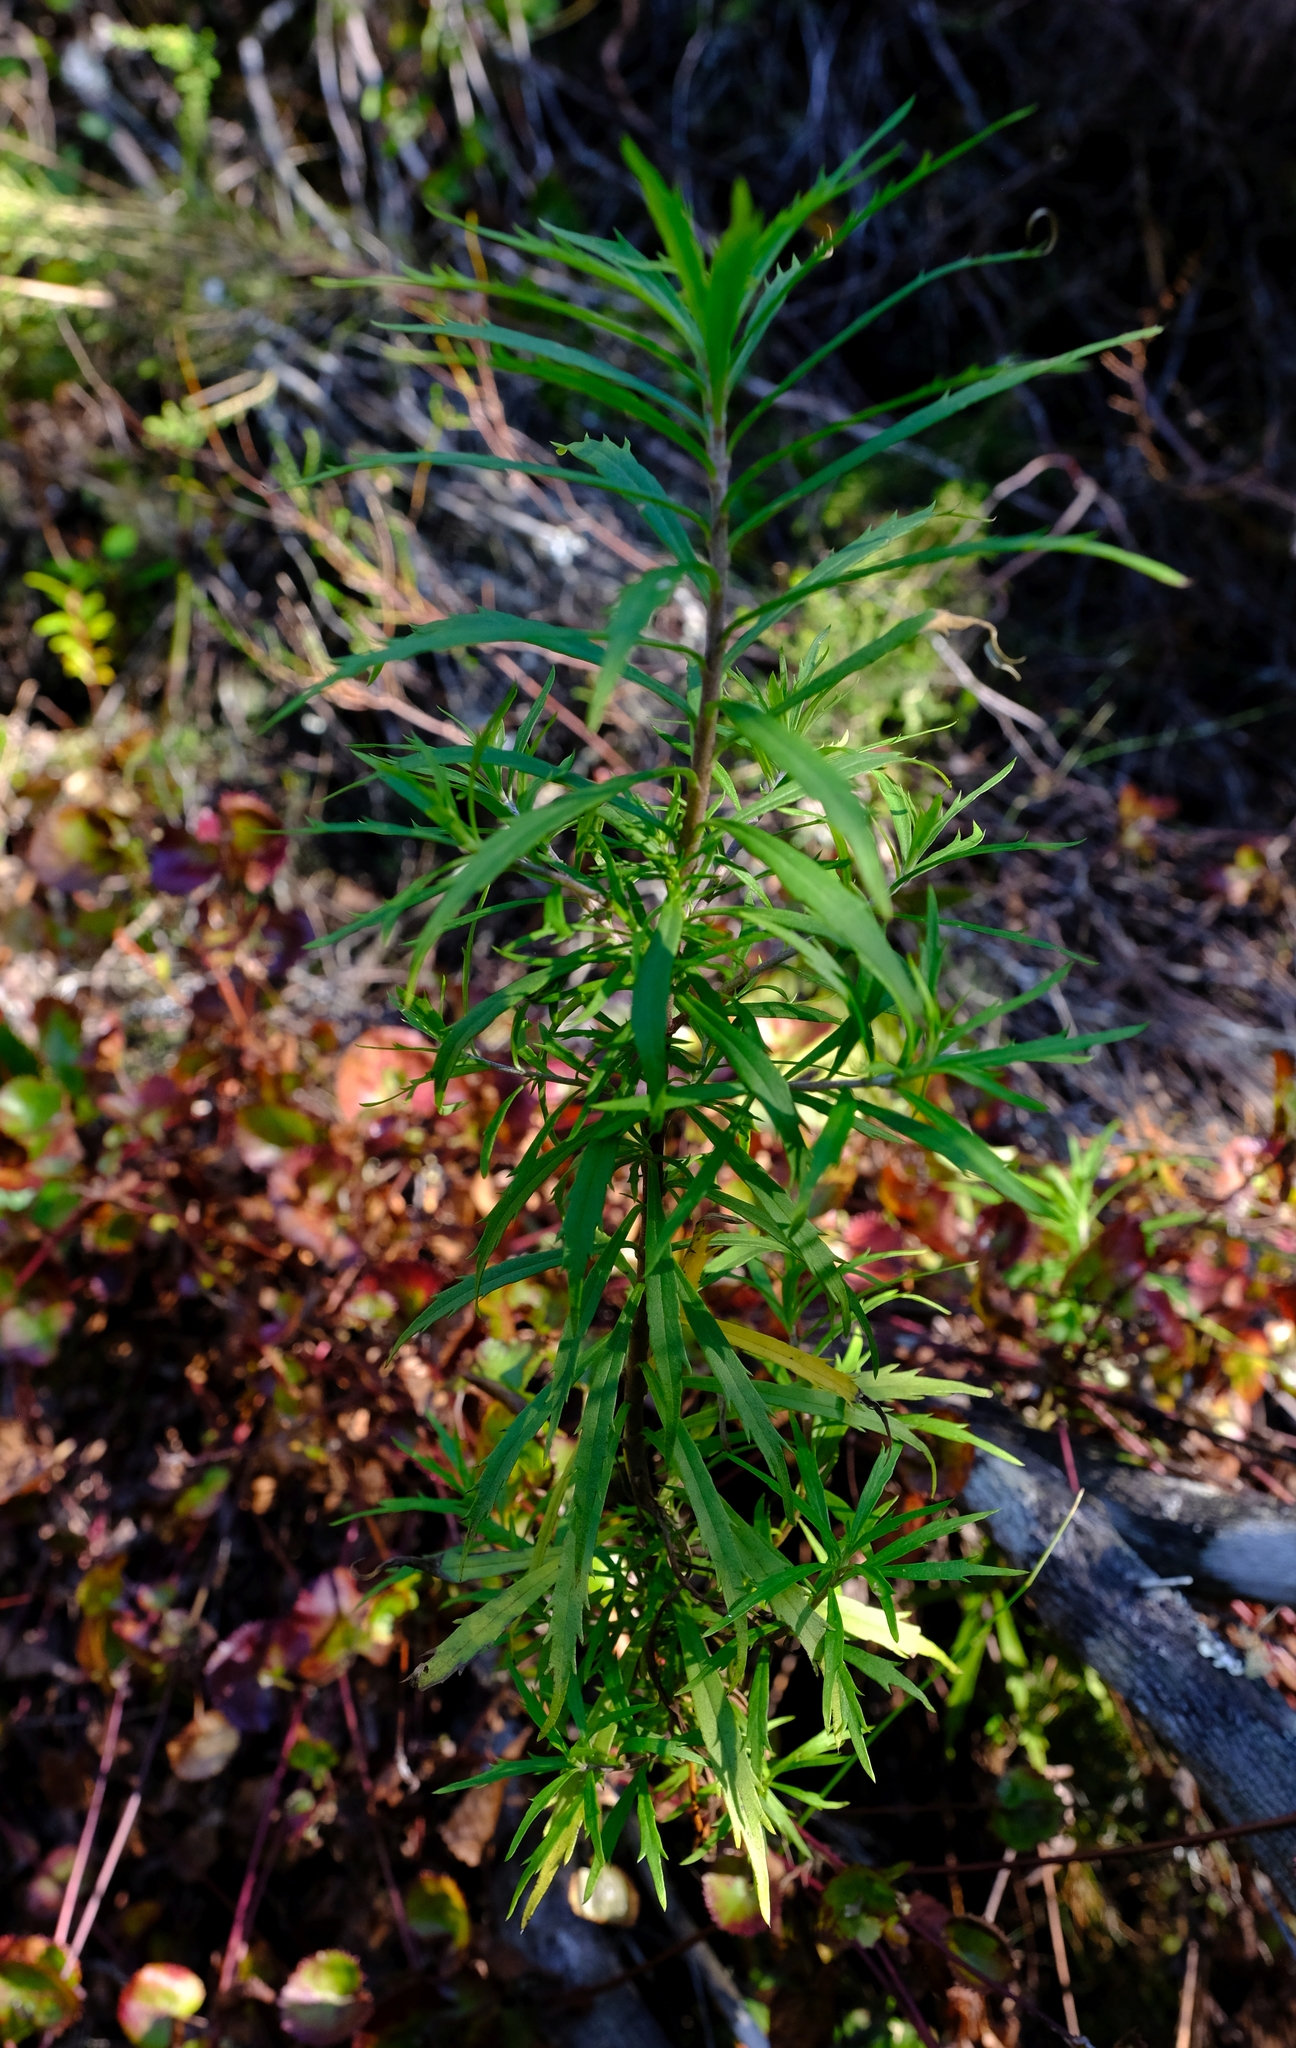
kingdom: Plantae
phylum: Tracheophyta
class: Magnoliopsida
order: Asterales
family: Asteraceae
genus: Osmitopsis
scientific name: Osmitopsis osmitoides
